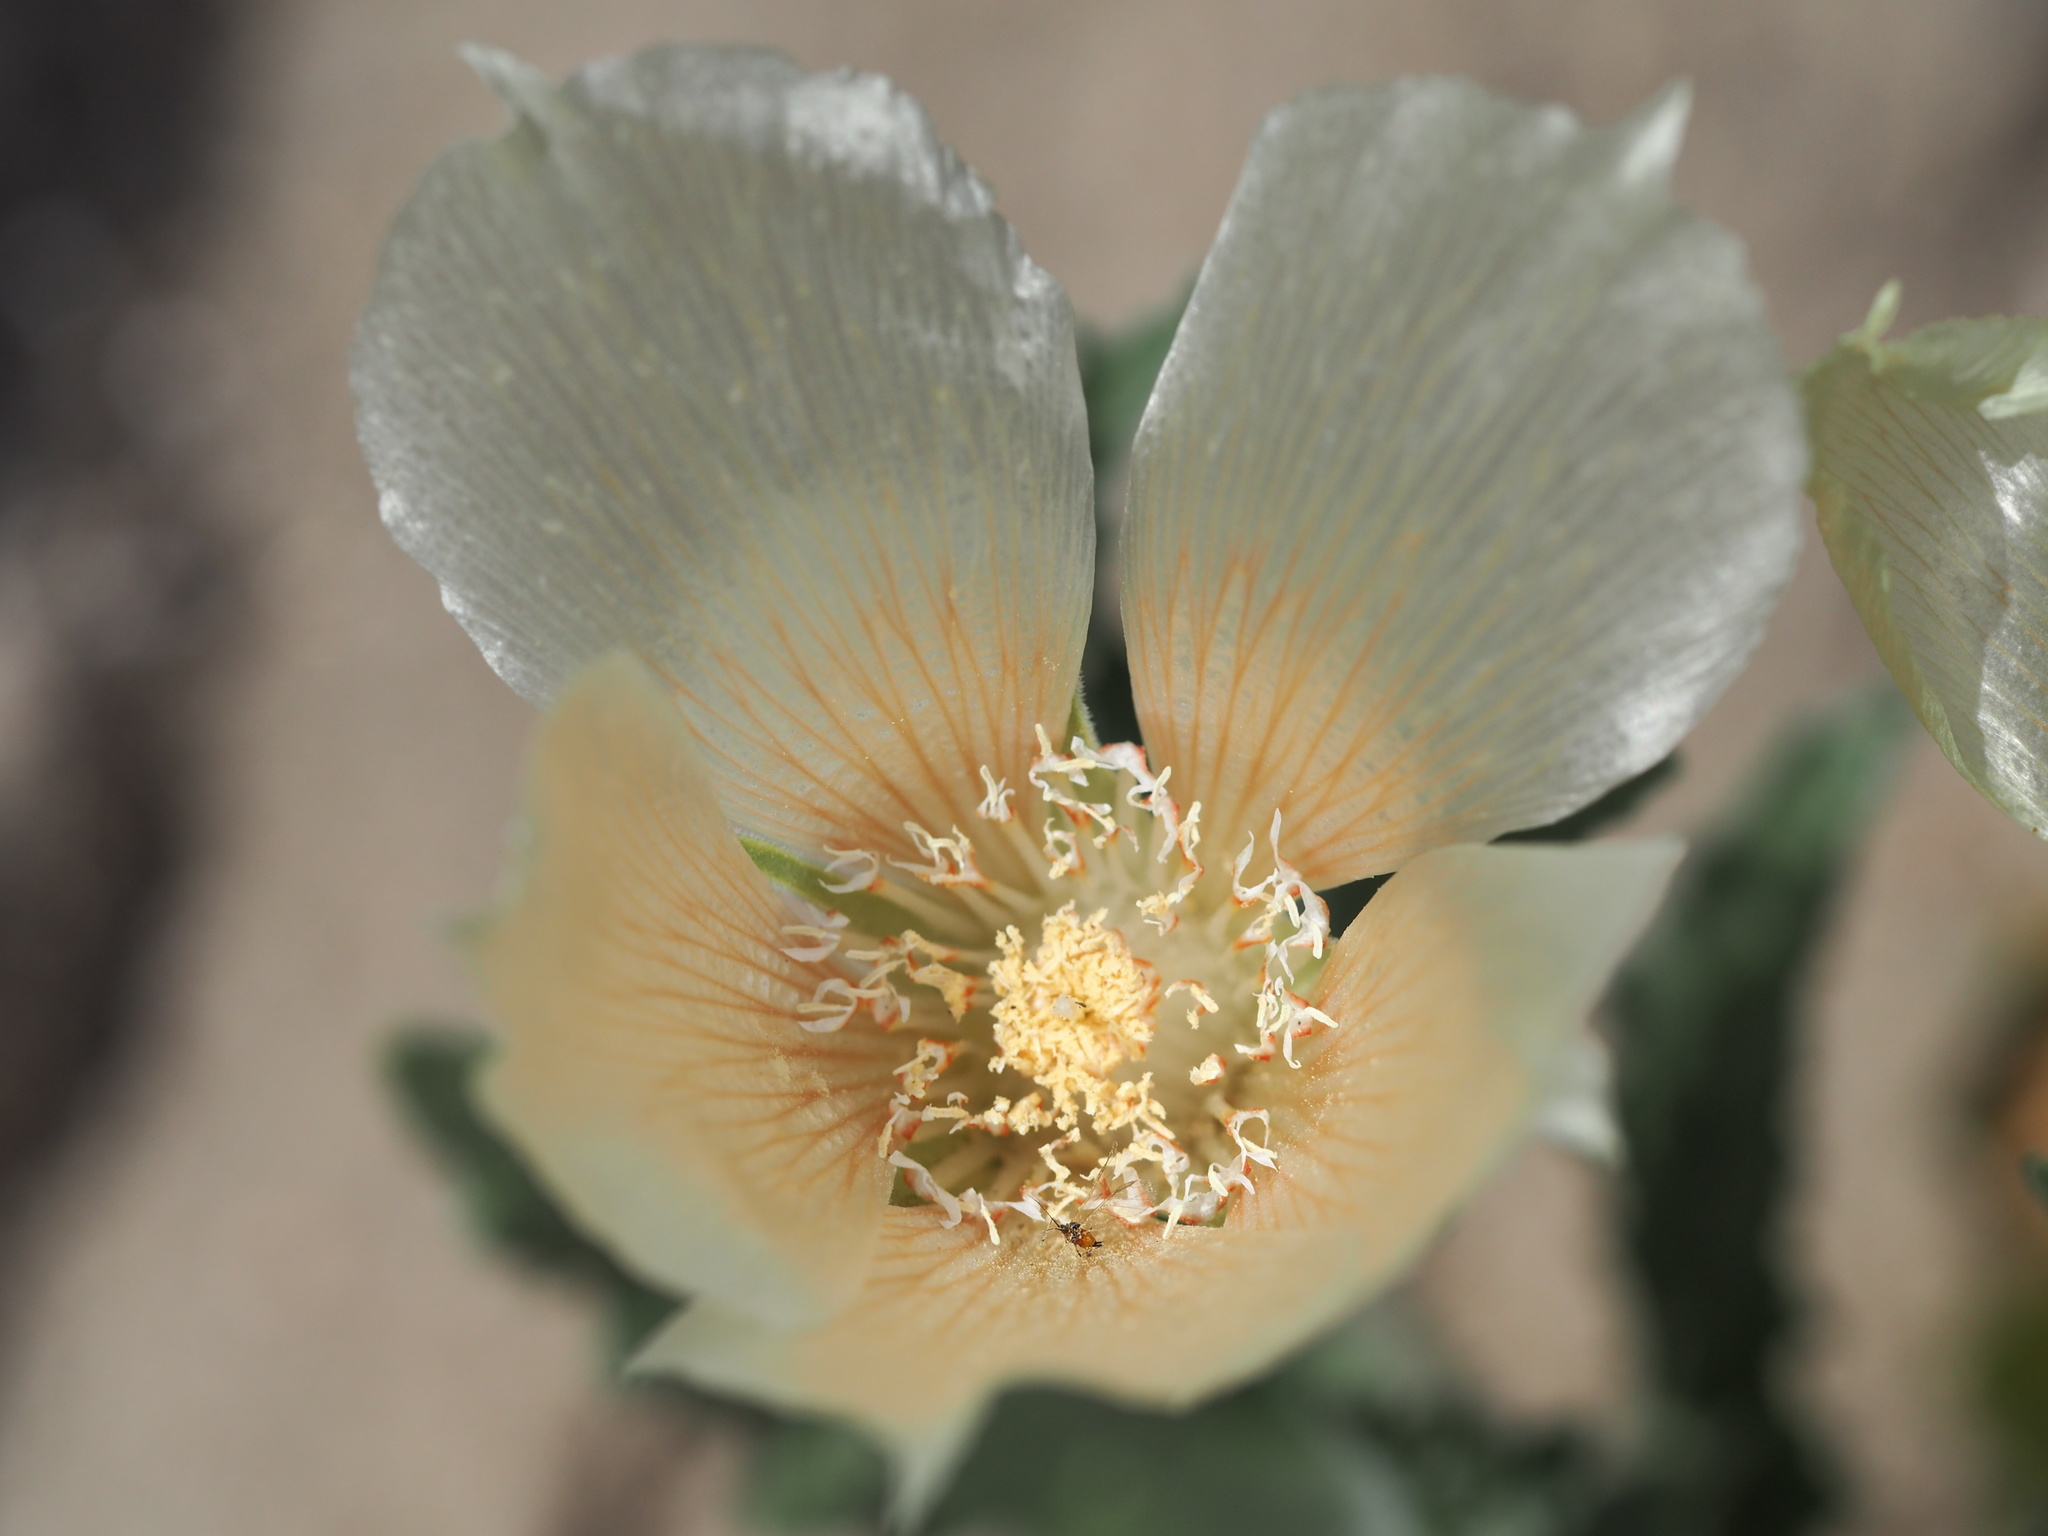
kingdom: Plantae
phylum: Tracheophyta
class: Magnoliopsida
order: Cornales
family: Loasaceae
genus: Mentzelia
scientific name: Mentzelia involucrata
